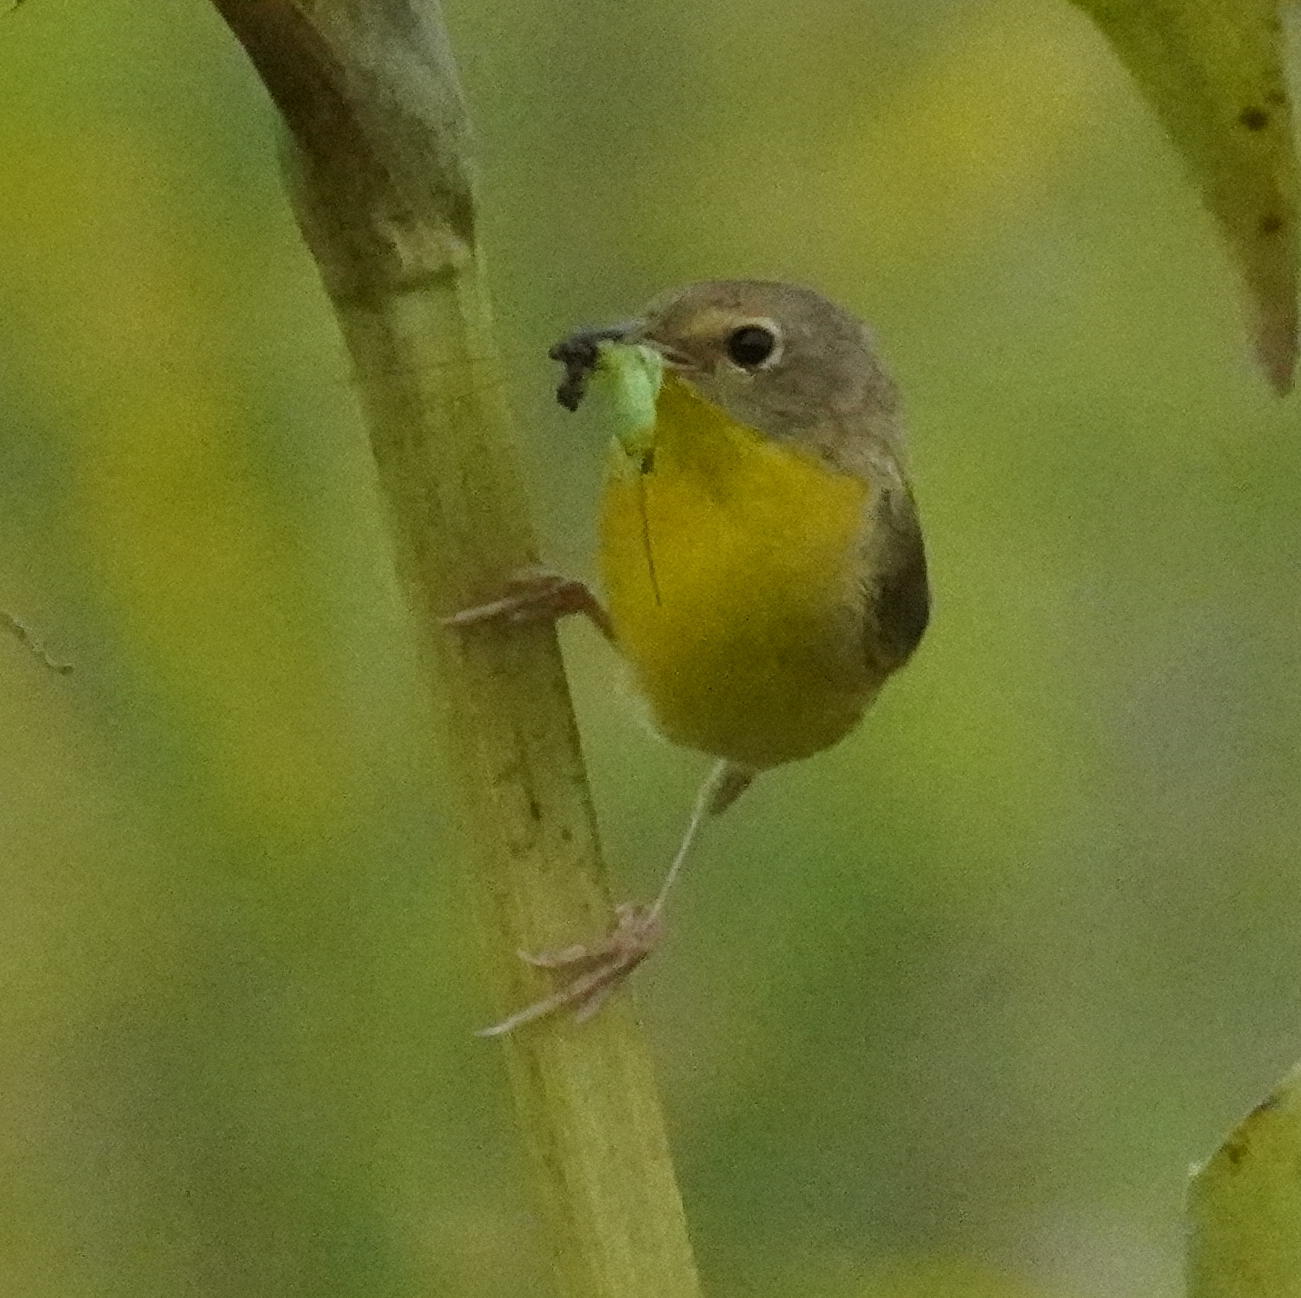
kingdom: Animalia
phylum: Chordata
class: Aves
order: Passeriformes
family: Parulidae
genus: Geothlypis
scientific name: Geothlypis trichas
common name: Common yellowthroat
